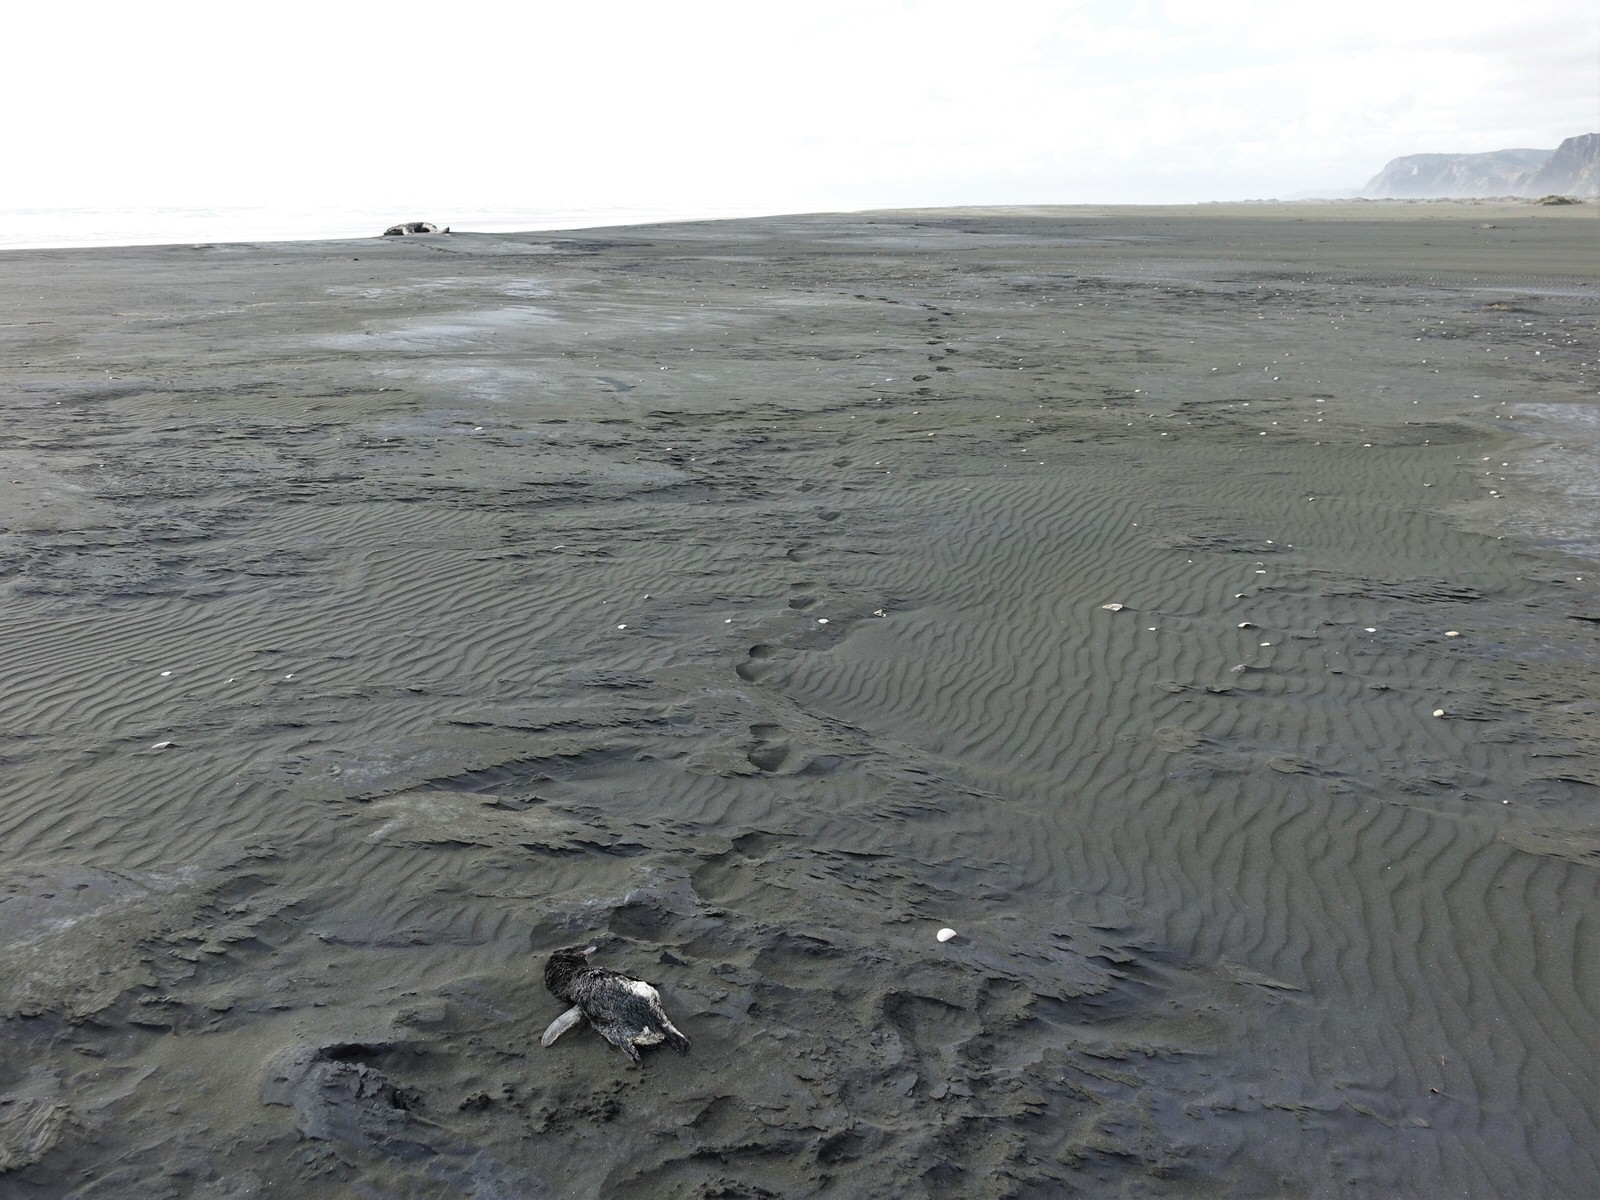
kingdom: Animalia
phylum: Chordata
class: Aves
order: Sphenisciformes
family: Spheniscidae
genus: Eudyptula
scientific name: Eudyptula minor
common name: Little penguin
